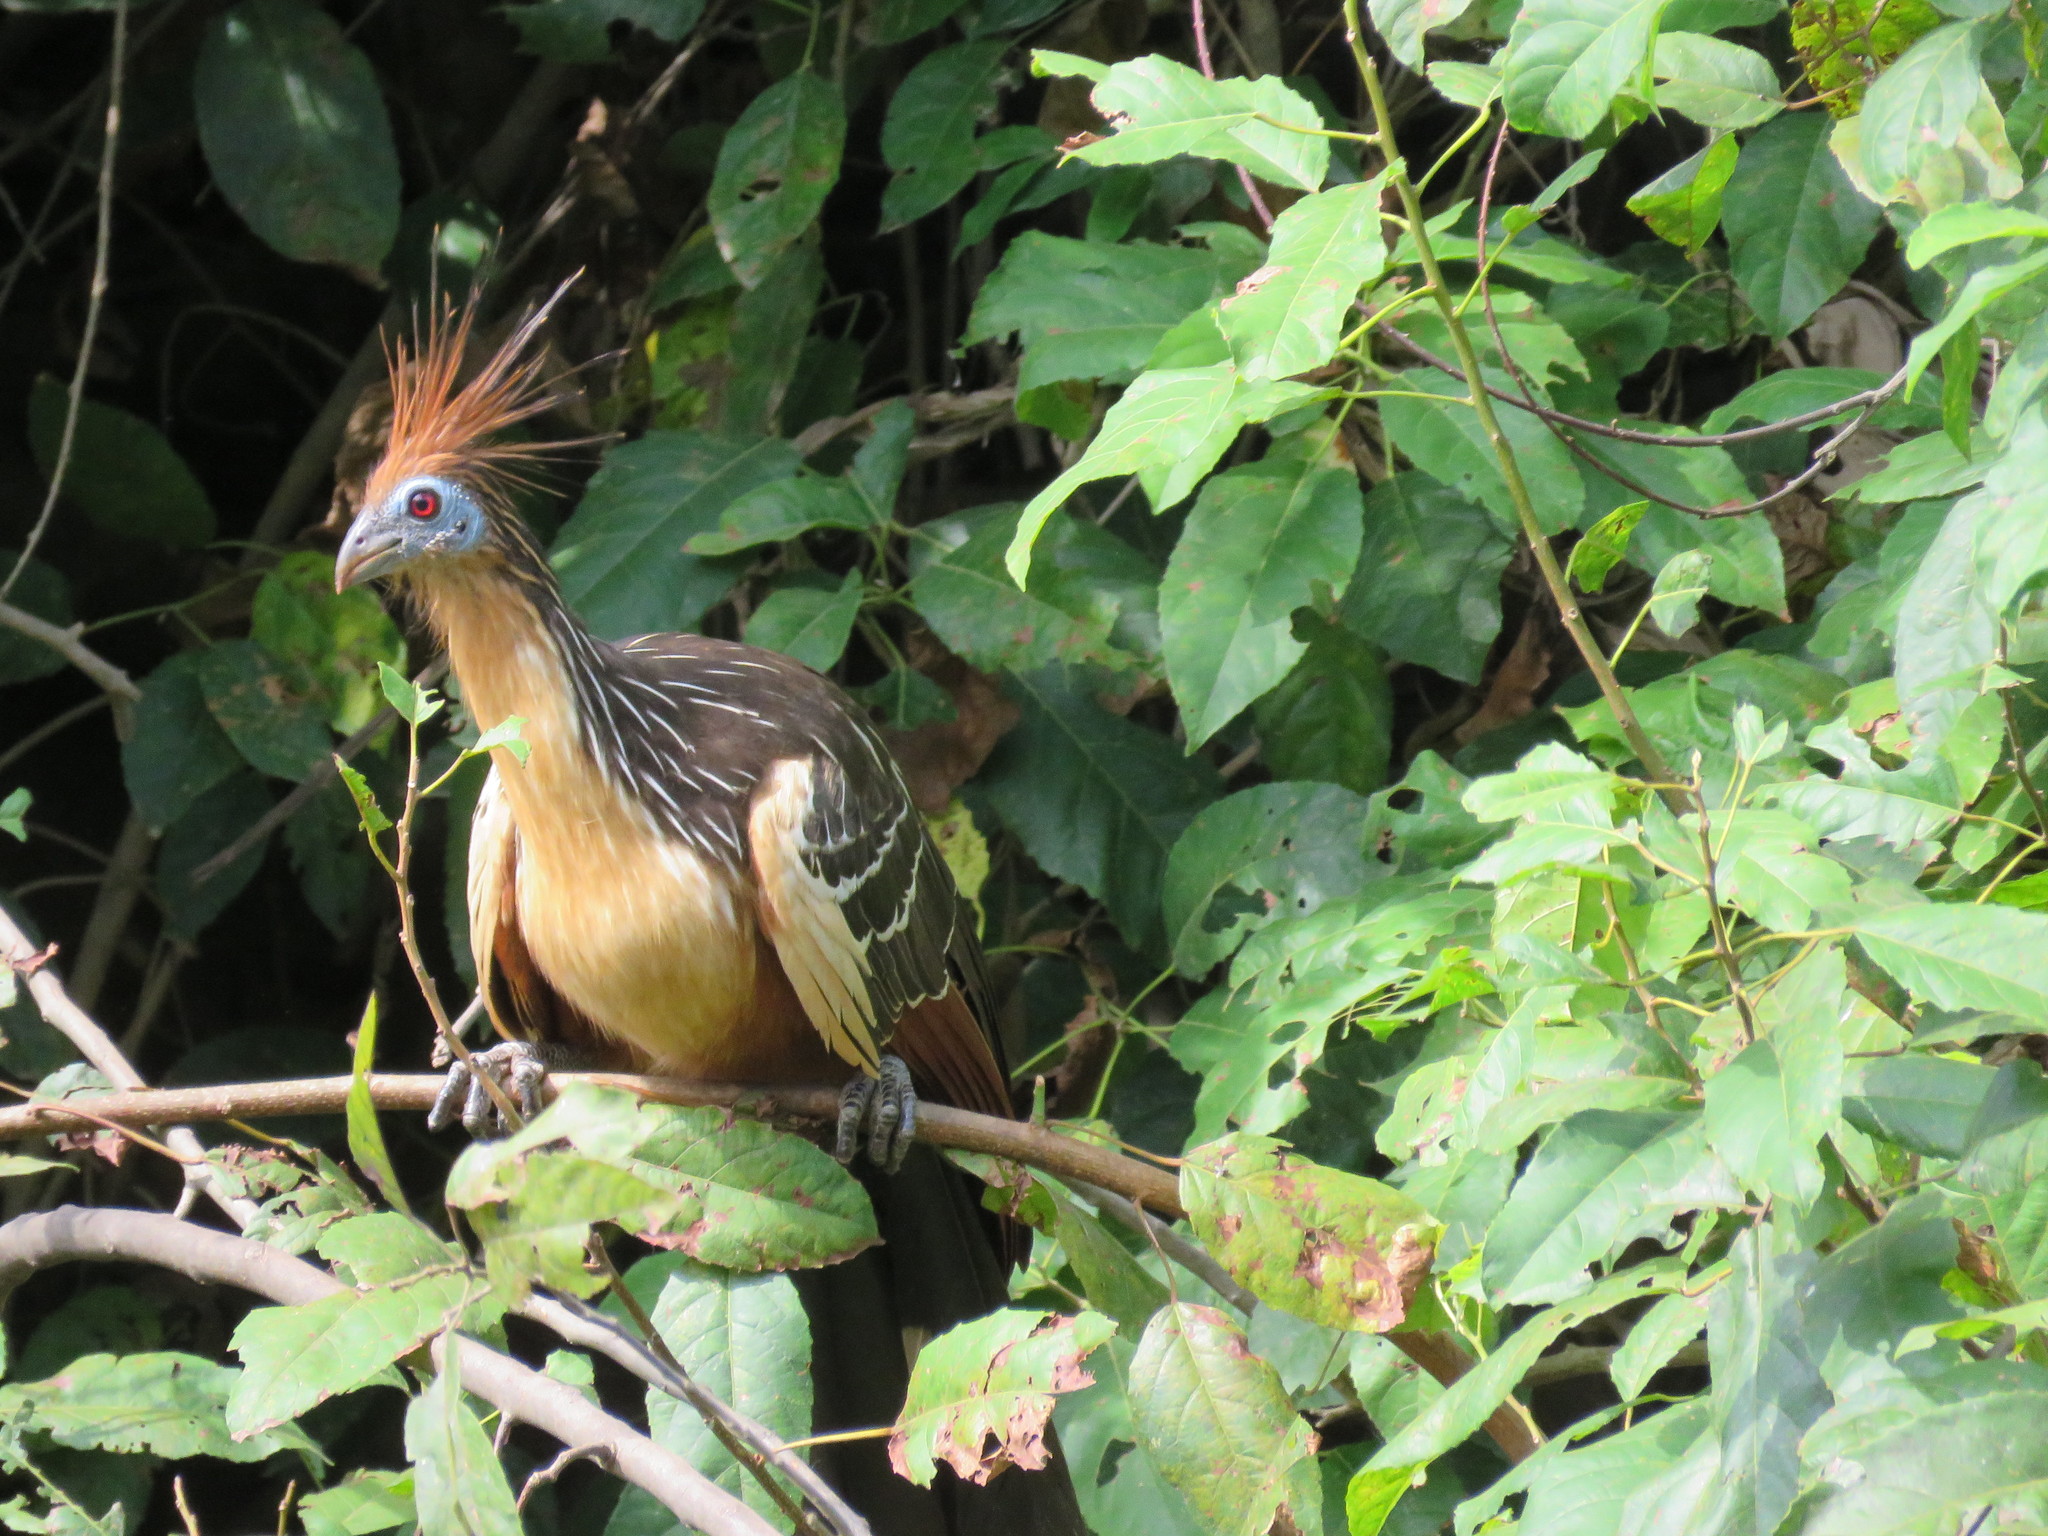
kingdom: Animalia
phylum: Chordata
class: Aves
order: Opisthocomiformes
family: Opisthocomidae
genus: Opisthocomus
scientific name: Opisthocomus hoazin
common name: Hoatzin
